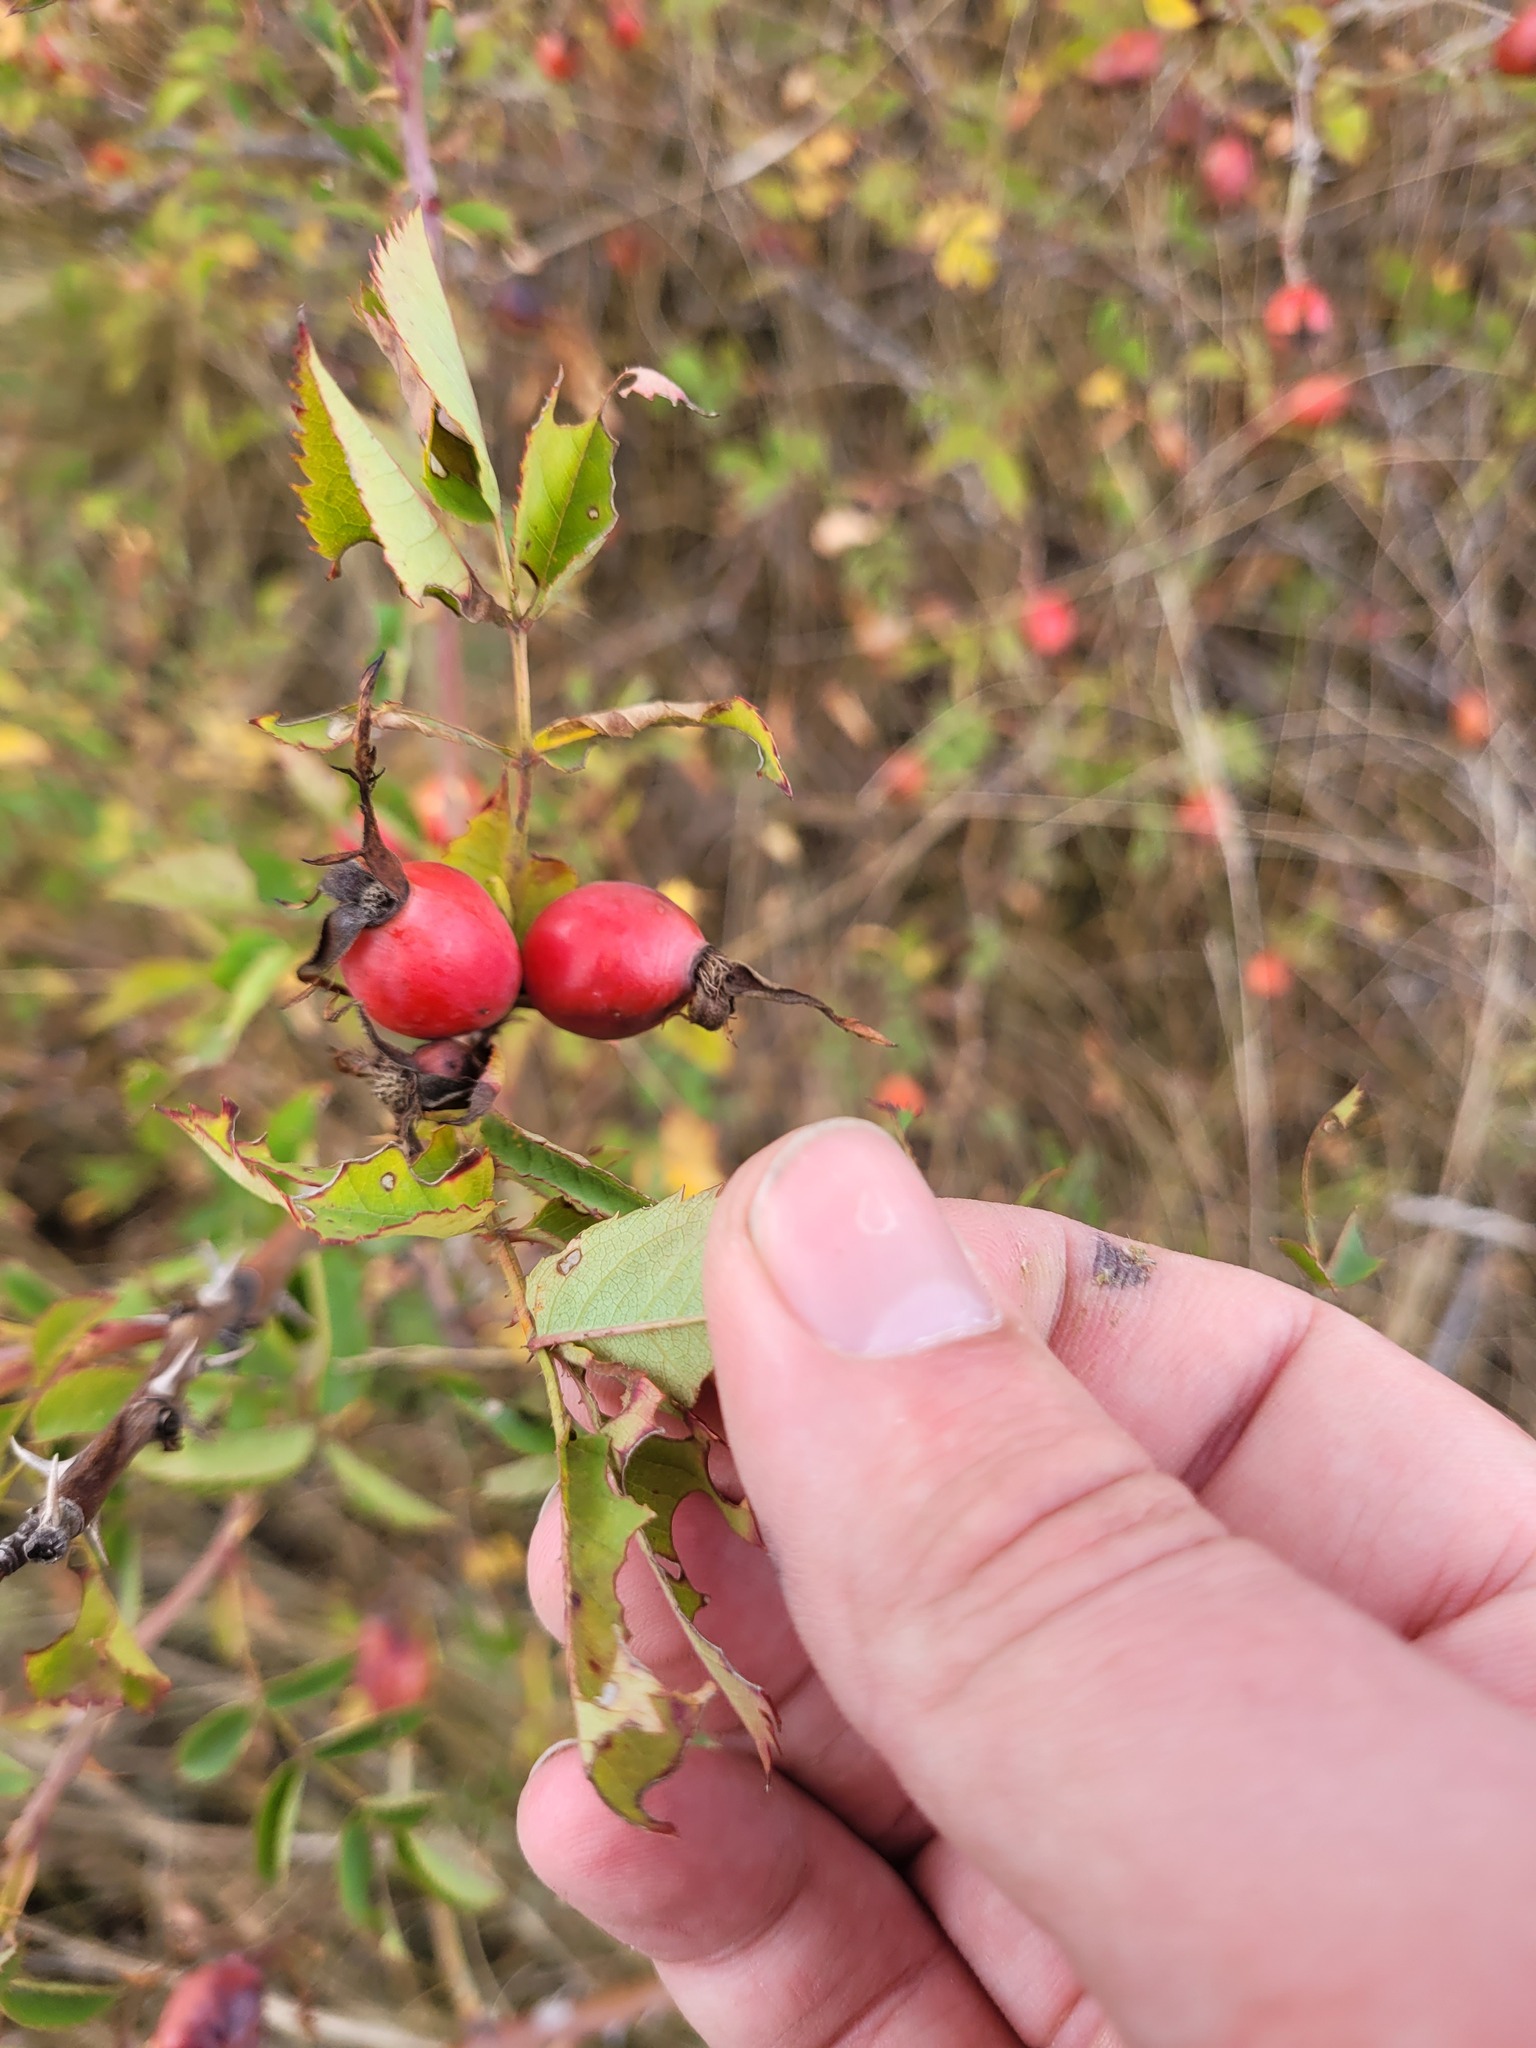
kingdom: Plantae
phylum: Tracheophyta
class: Magnoliopsida
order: Rosales
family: Rosaceae
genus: Rosa
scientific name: Rosa canina
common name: Dog rose
